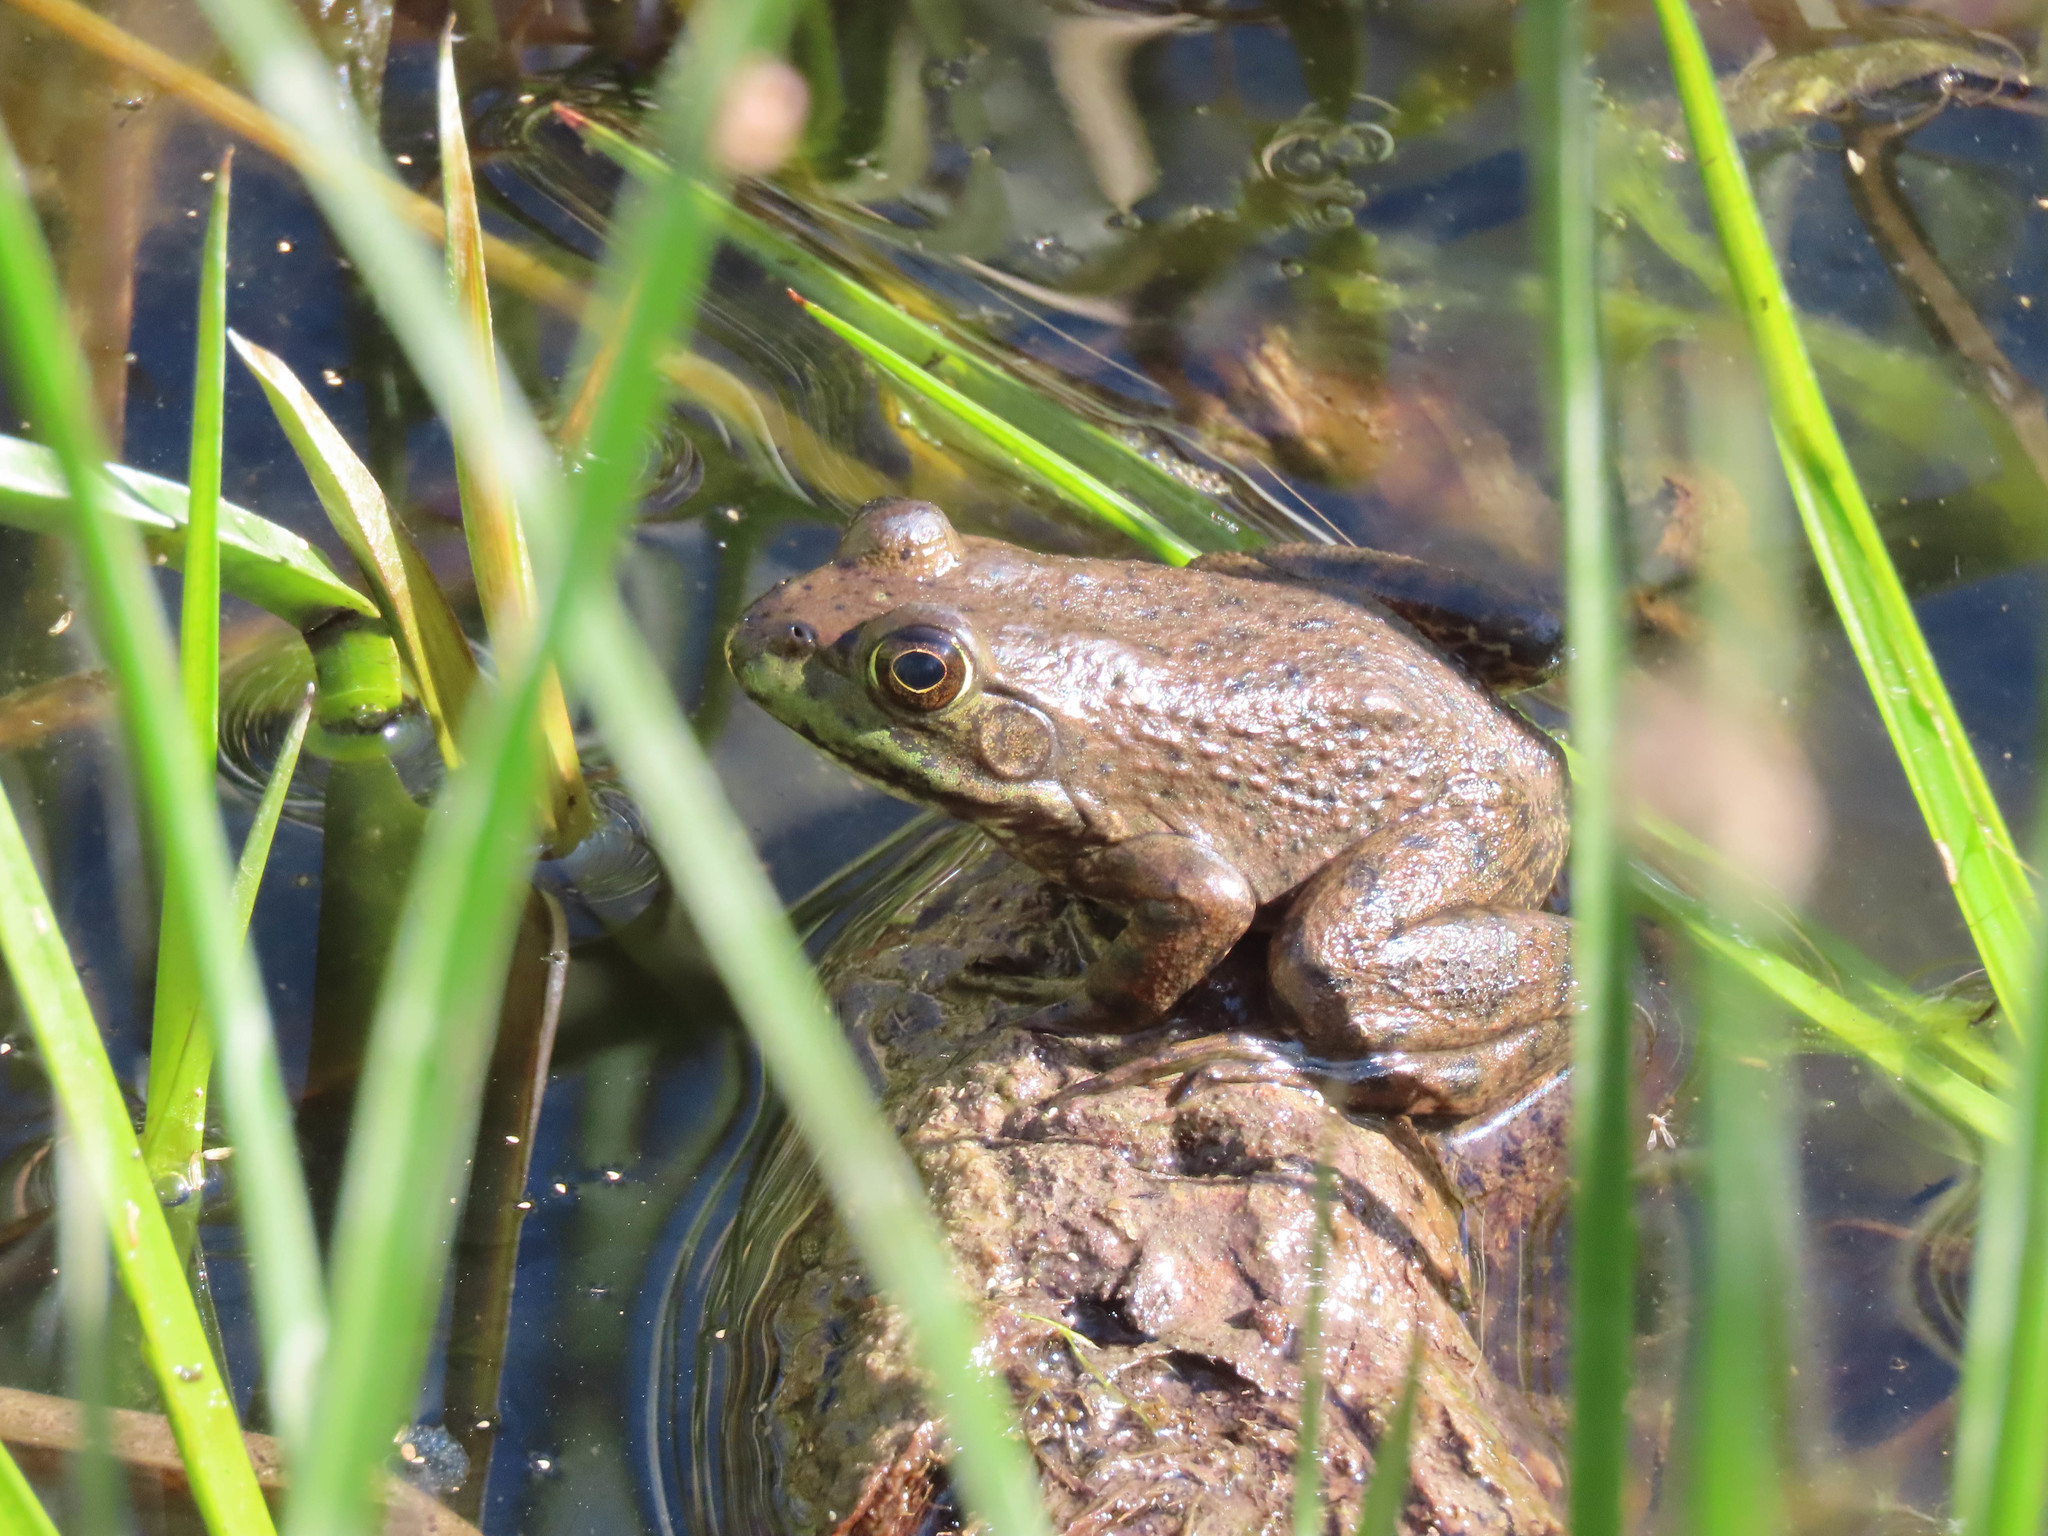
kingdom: Animalia
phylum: Chordata
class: Amphibia
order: Anura
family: Ranidae
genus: Lithobates
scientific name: Lithobates catesbeianus
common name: American bullfrog
